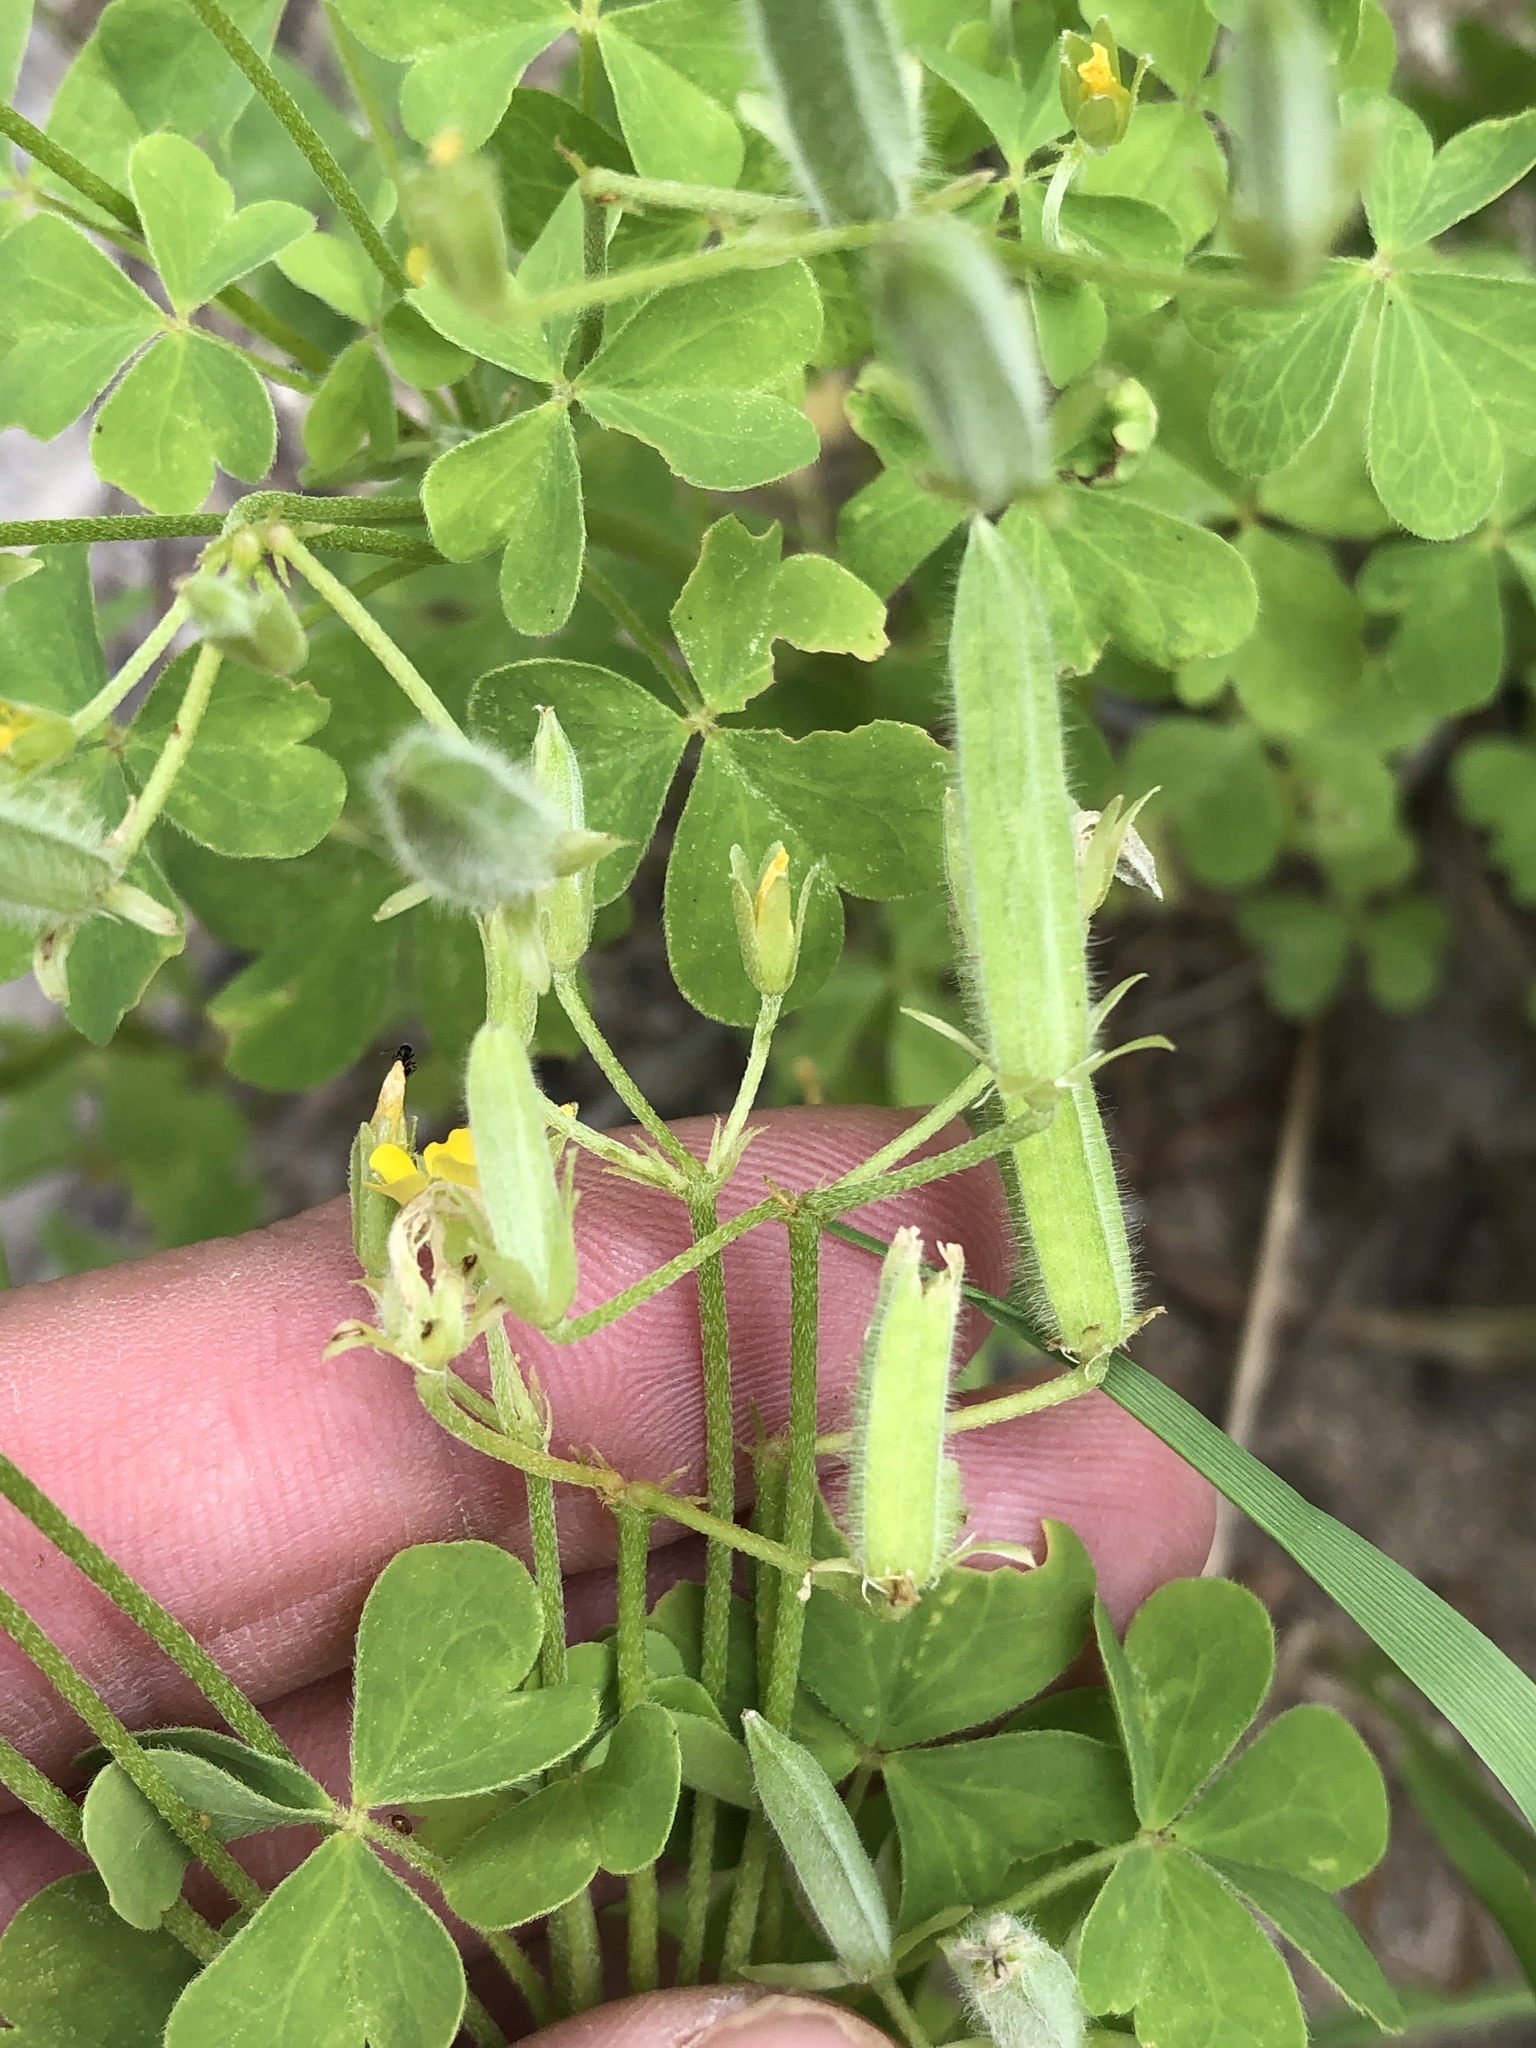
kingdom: Plantae
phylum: Tracheophyta
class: Magnoliopsida
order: Oxalidales
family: Oxalidaceae
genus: Oxalis
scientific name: Oxalis dillenii
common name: Sussex yellow-sorrel
